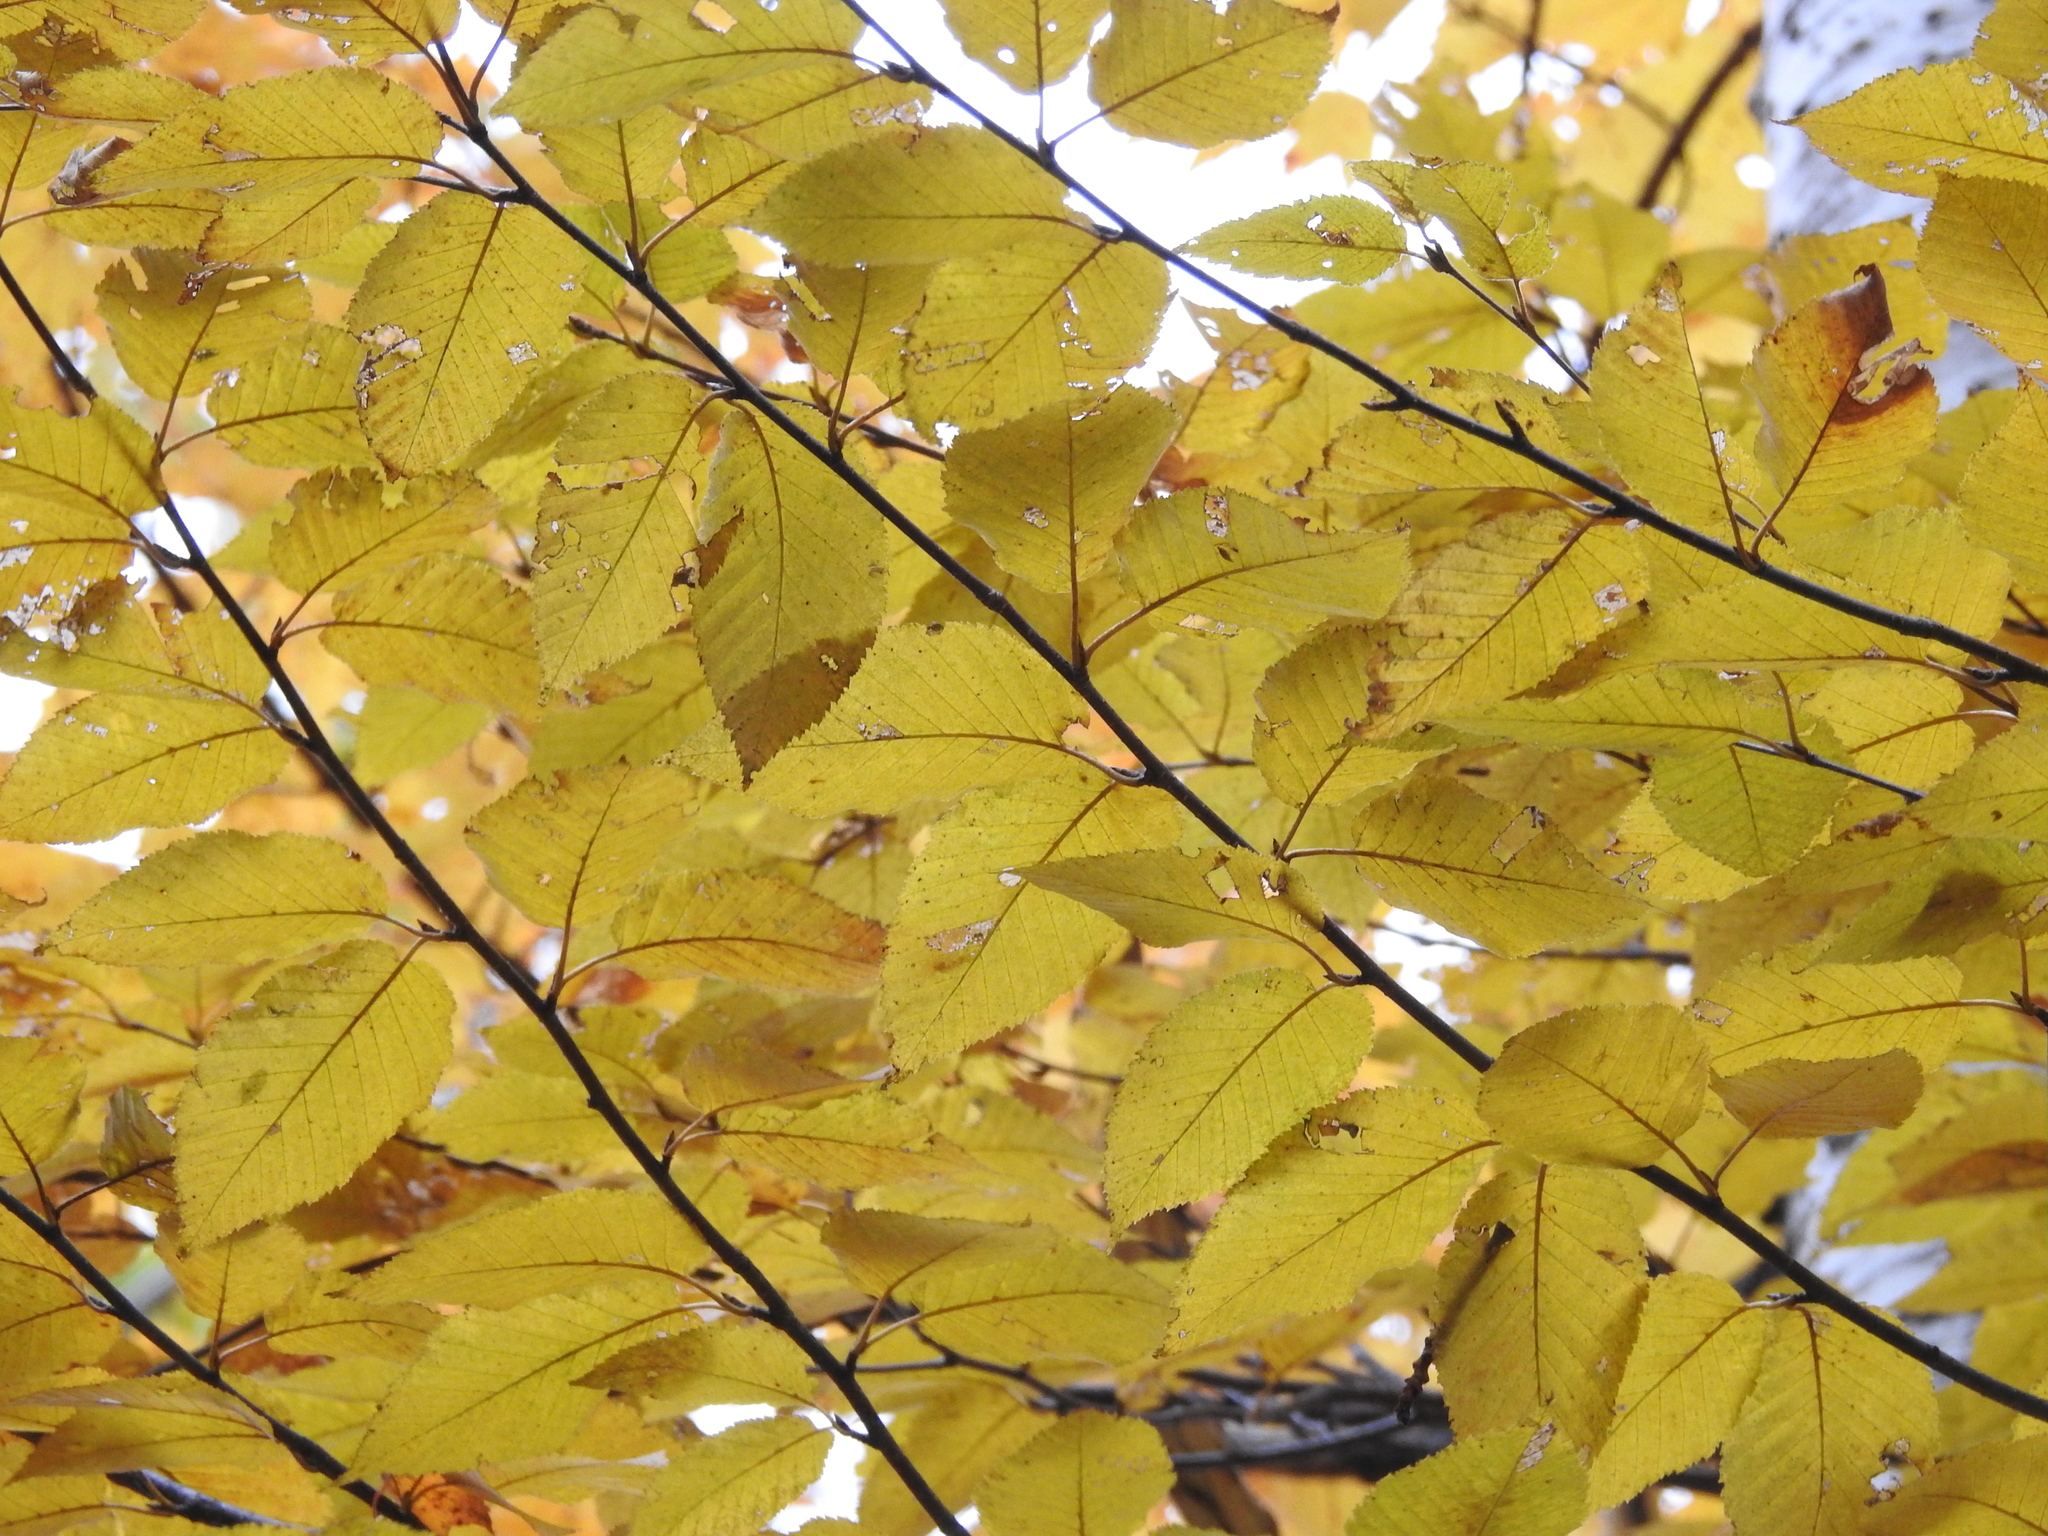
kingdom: Plantae
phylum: Tracheophyta
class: Magnoliopsida
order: Fagales
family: Betulaceae
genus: Betula
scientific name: Betula alleghaniensis
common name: Yellow birch
